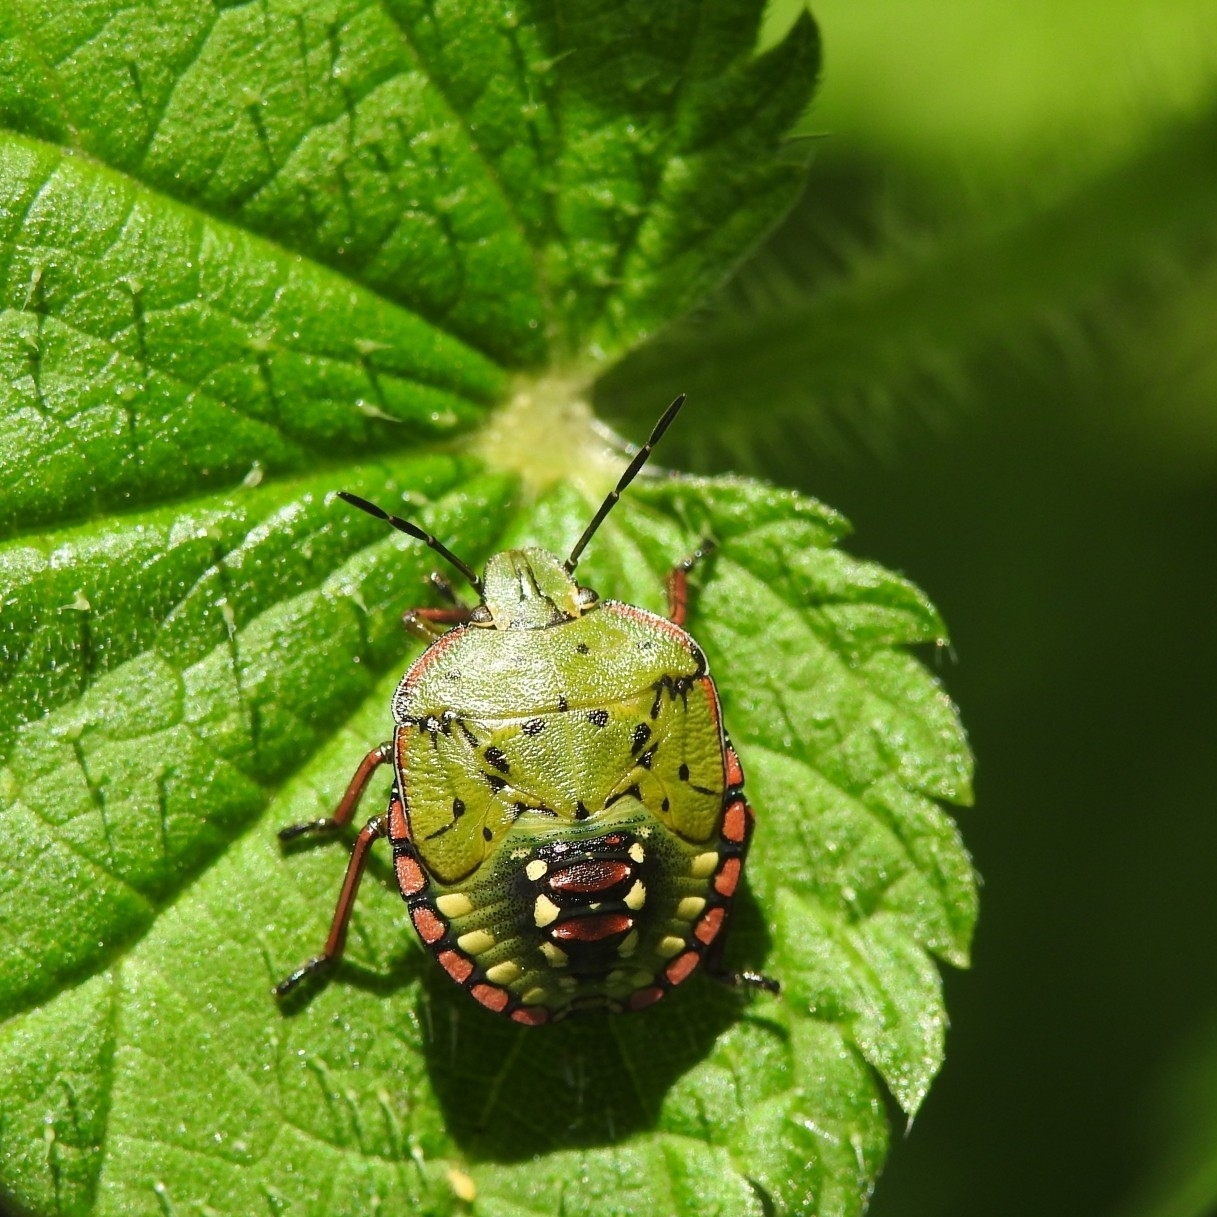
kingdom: Animalia
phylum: Arthropoda
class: Insecta
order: Hemiptera
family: Pentatomidae
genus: Nezara
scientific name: Nezara viridula
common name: Southern green stink bug
